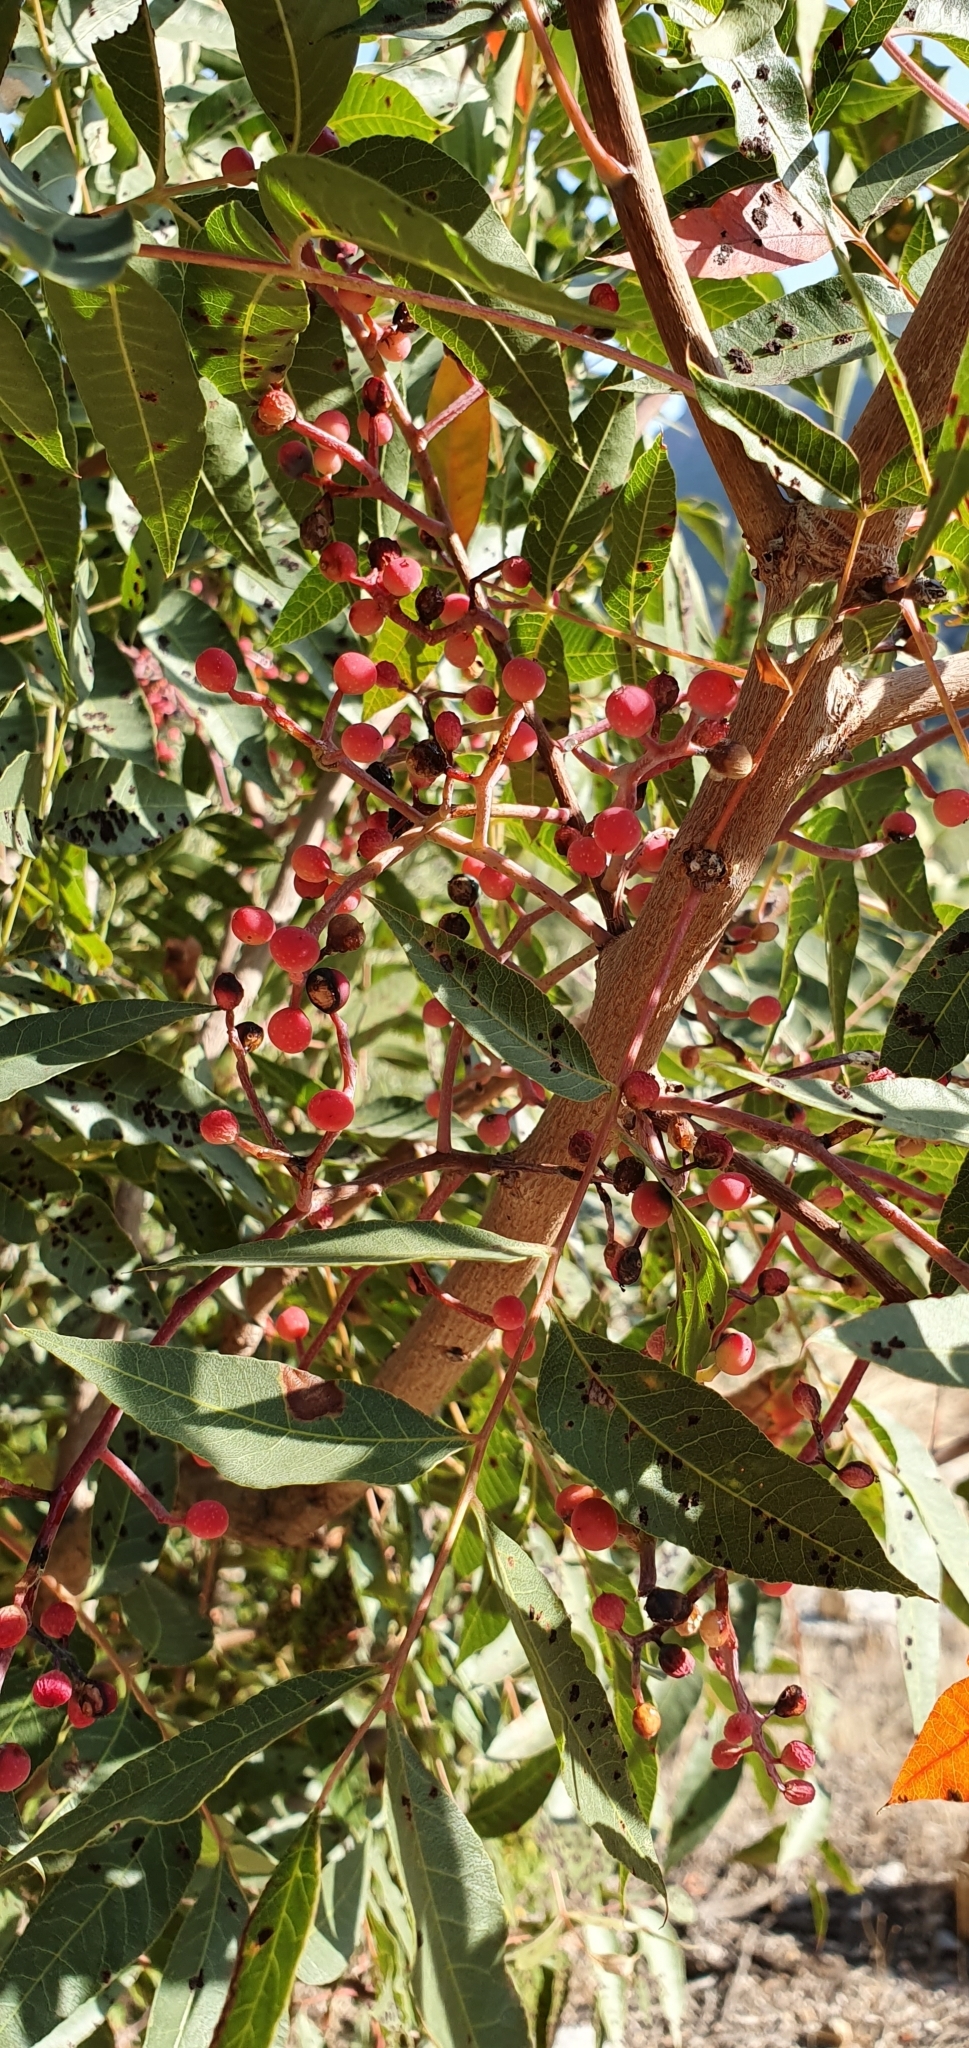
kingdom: Plantae
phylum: Tracheophyta
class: Magnoliopsida
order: Sapindales
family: Anacardiaceae
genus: Pistacia
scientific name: Pistacia terebinthus
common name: Terebinth
